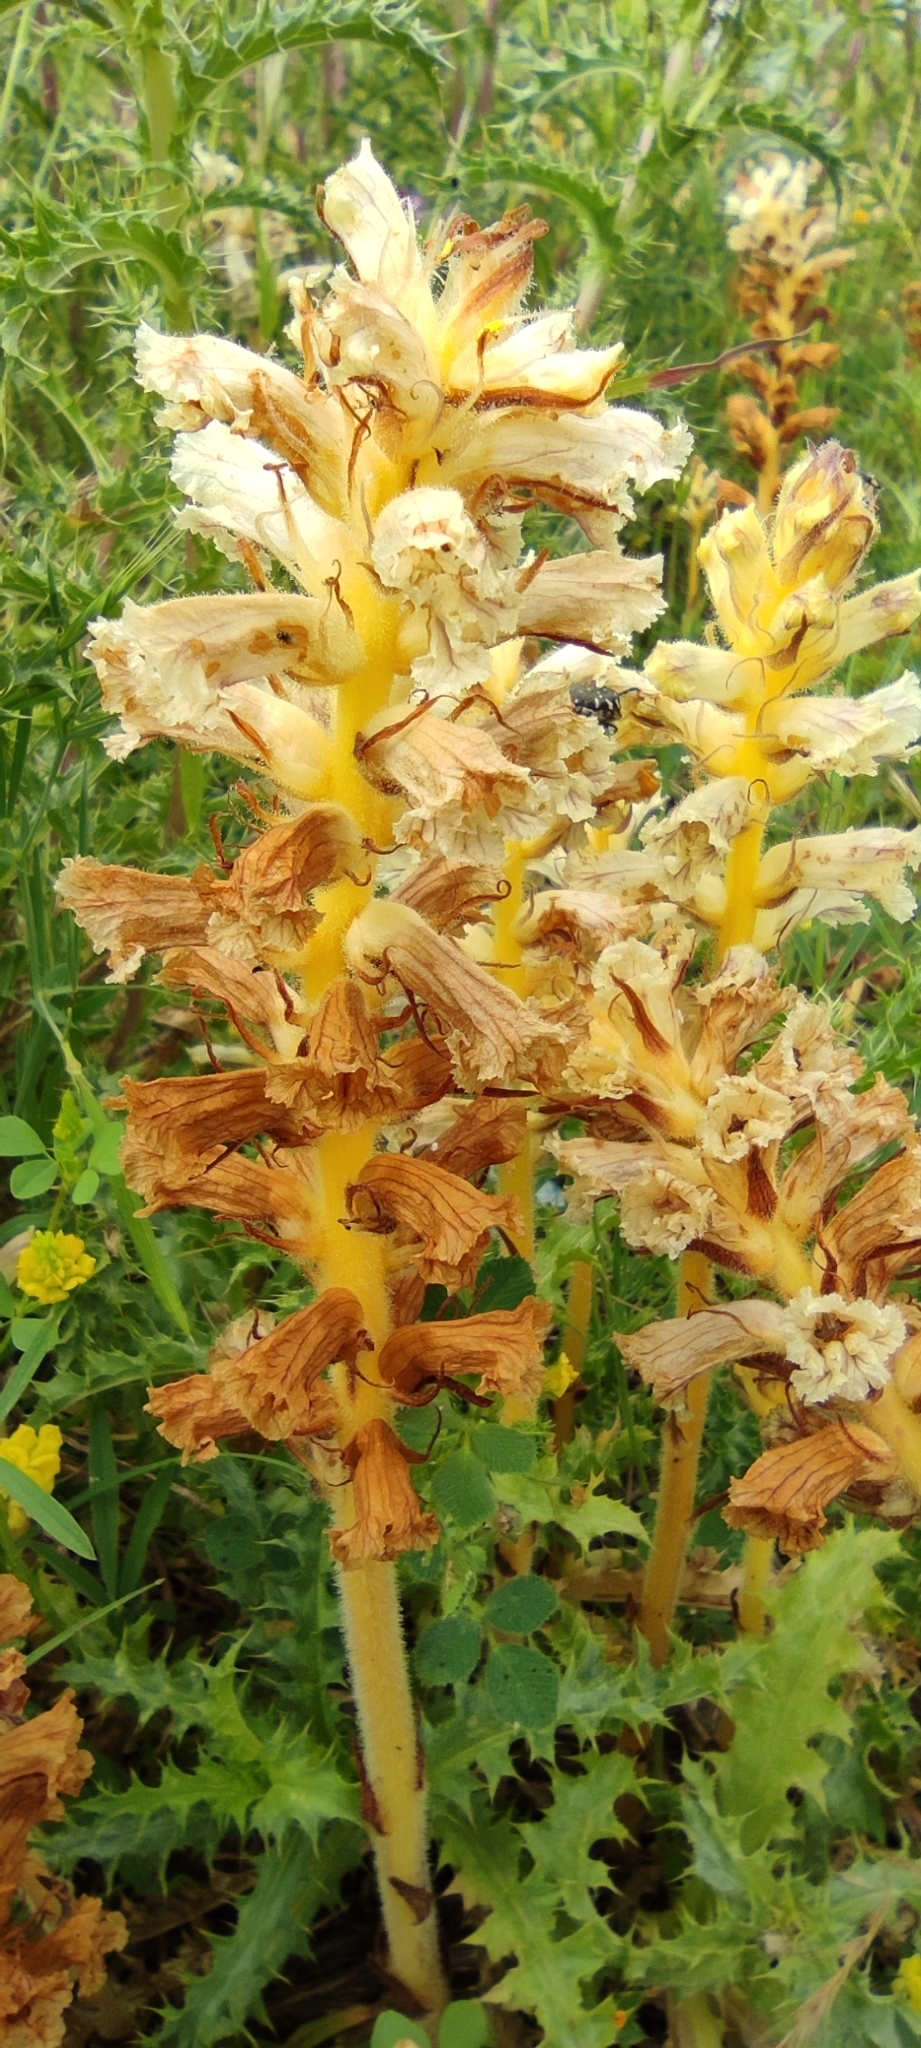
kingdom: Plantae
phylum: Tracheophyta
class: Magnoliopsida
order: Lamiales
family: Orobanchaceae
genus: Orobanche
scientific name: Orobanche balsensis
